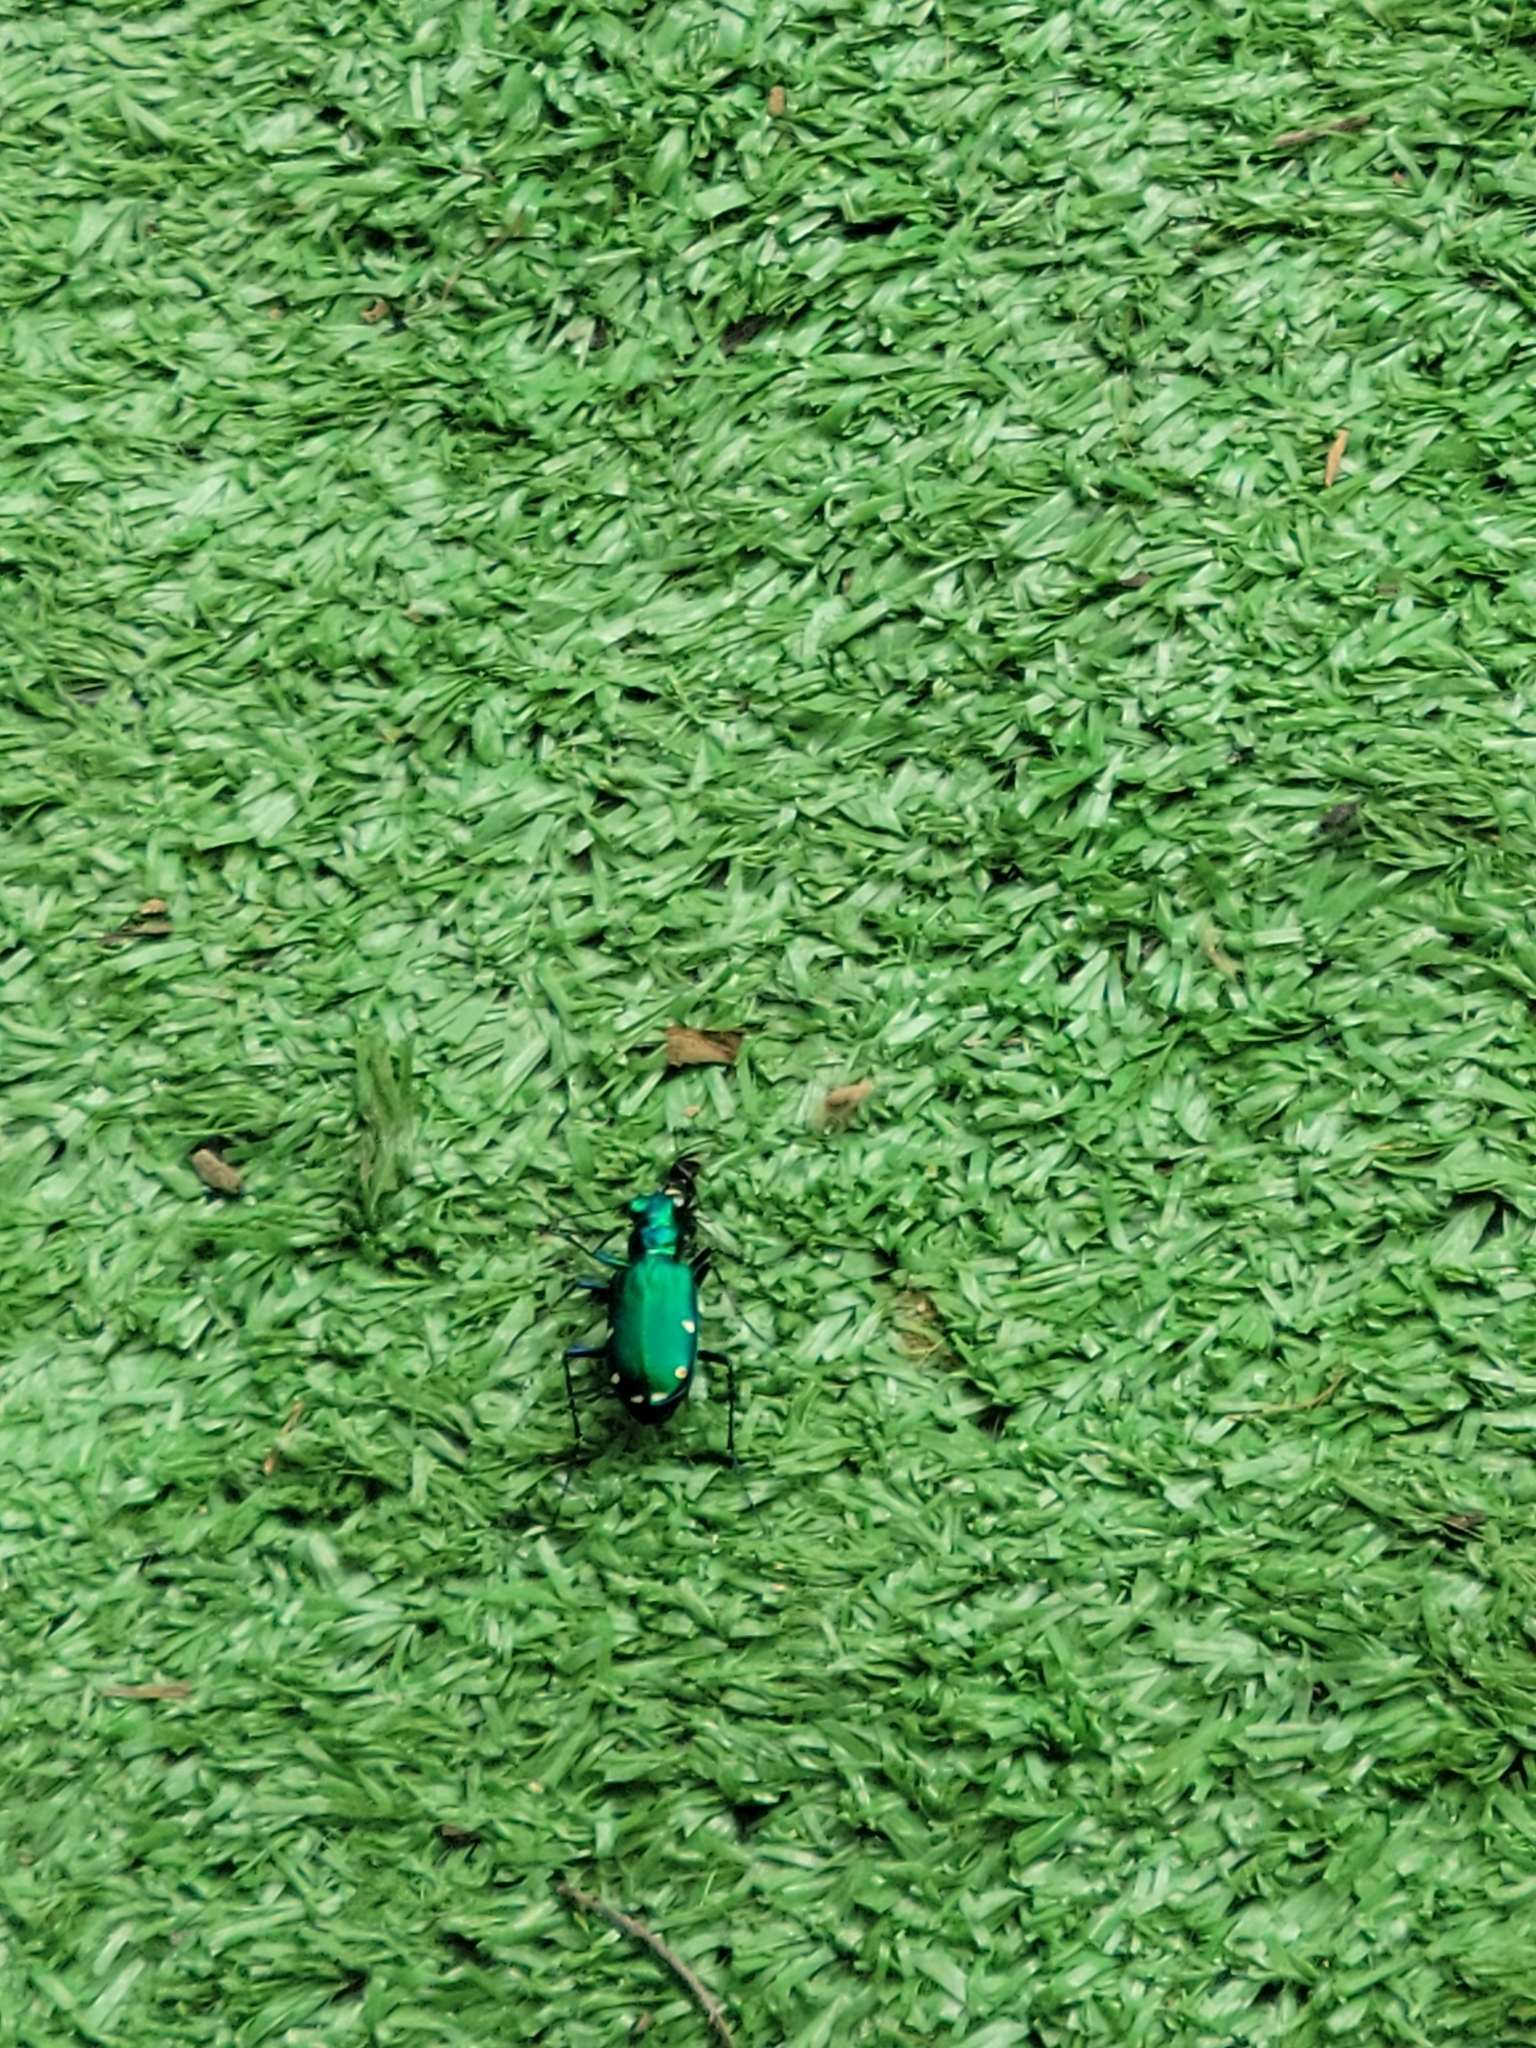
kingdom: Animalia
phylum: Arthropoda
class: Insecta
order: Coleoptera
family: Carabidae
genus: Cicindela
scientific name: Cicindela sexguttata
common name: Six-spotted tiger beetle
